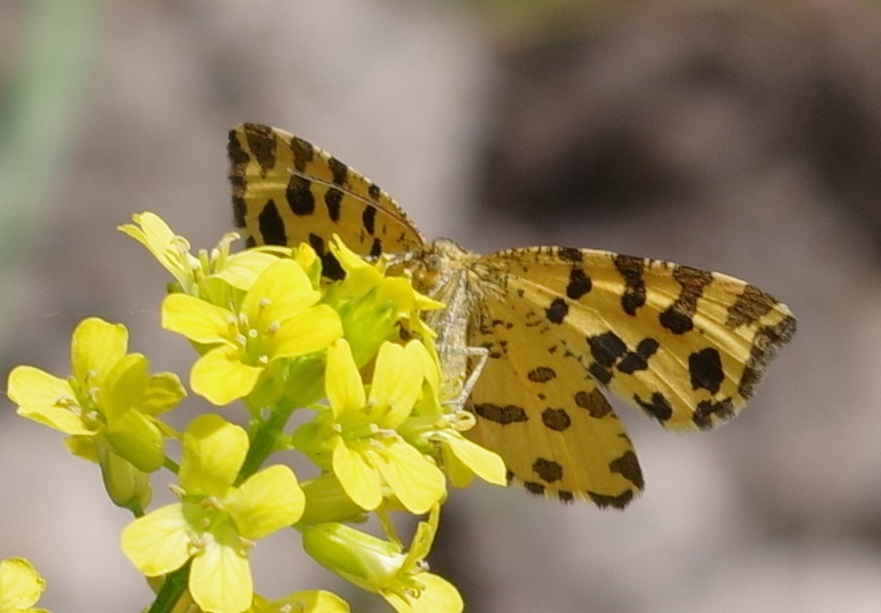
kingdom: Animalia
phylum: Arthropoda
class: Insecta
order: Lepidoptera
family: Geometridae
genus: Pseudopanthera
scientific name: Pseudopanthera macularia
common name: Speckled yellow
